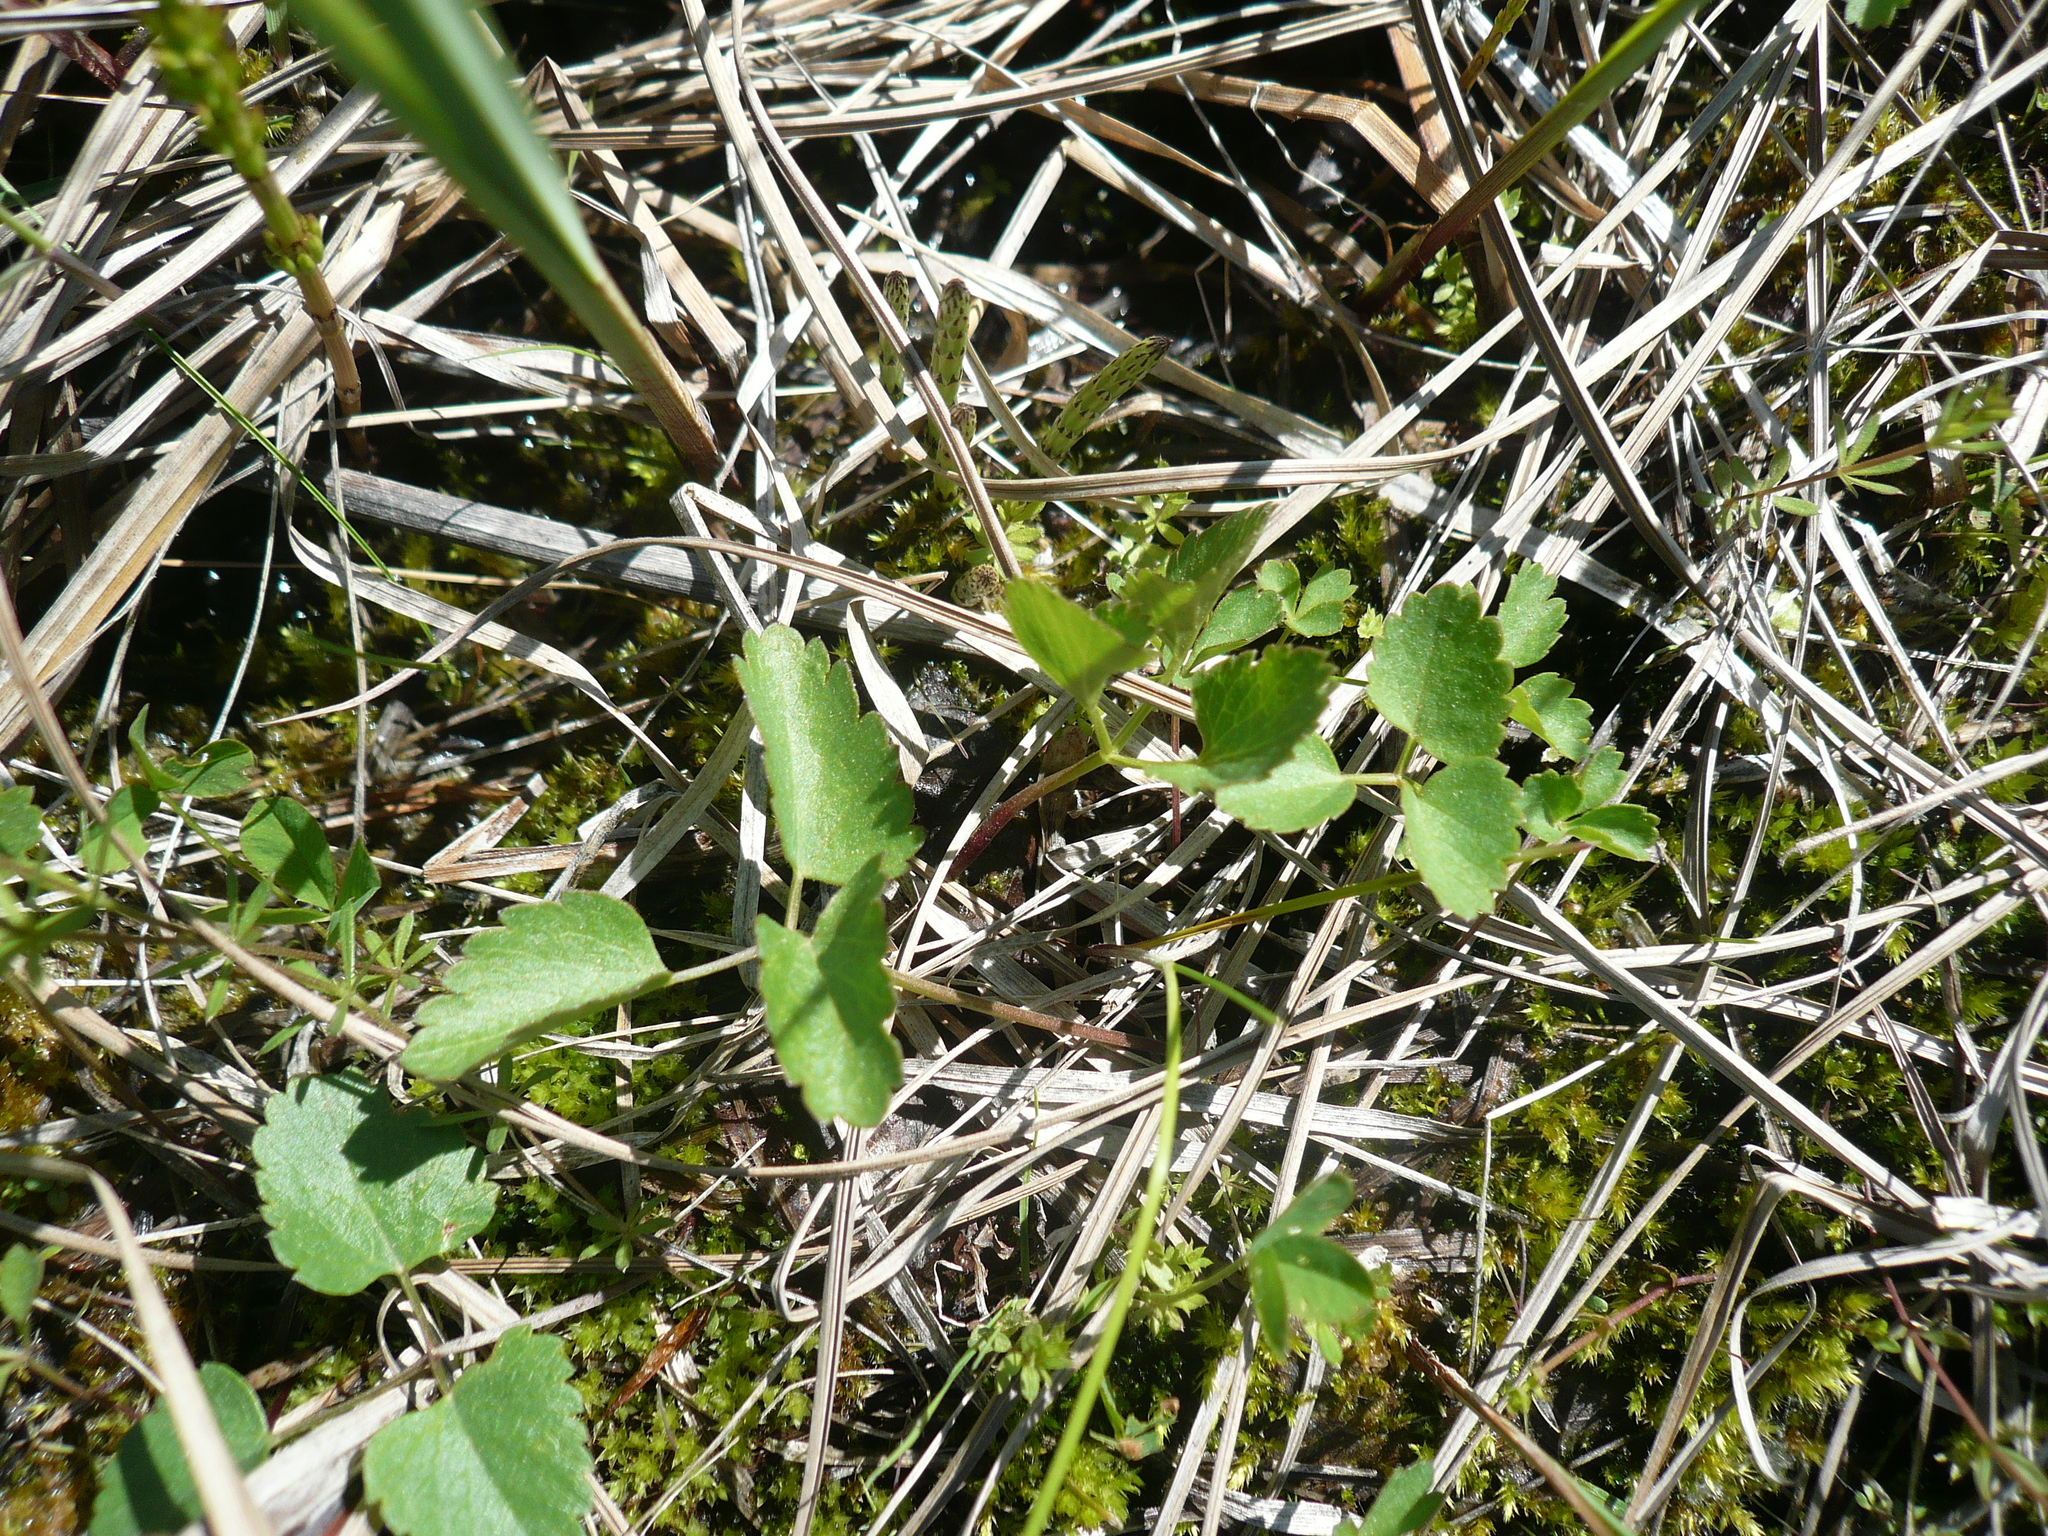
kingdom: Plantae
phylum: Tracheophyta
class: Magnoliopsida
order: Apiales
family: Apiaceae
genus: Ostericum
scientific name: Ostericum palustre
